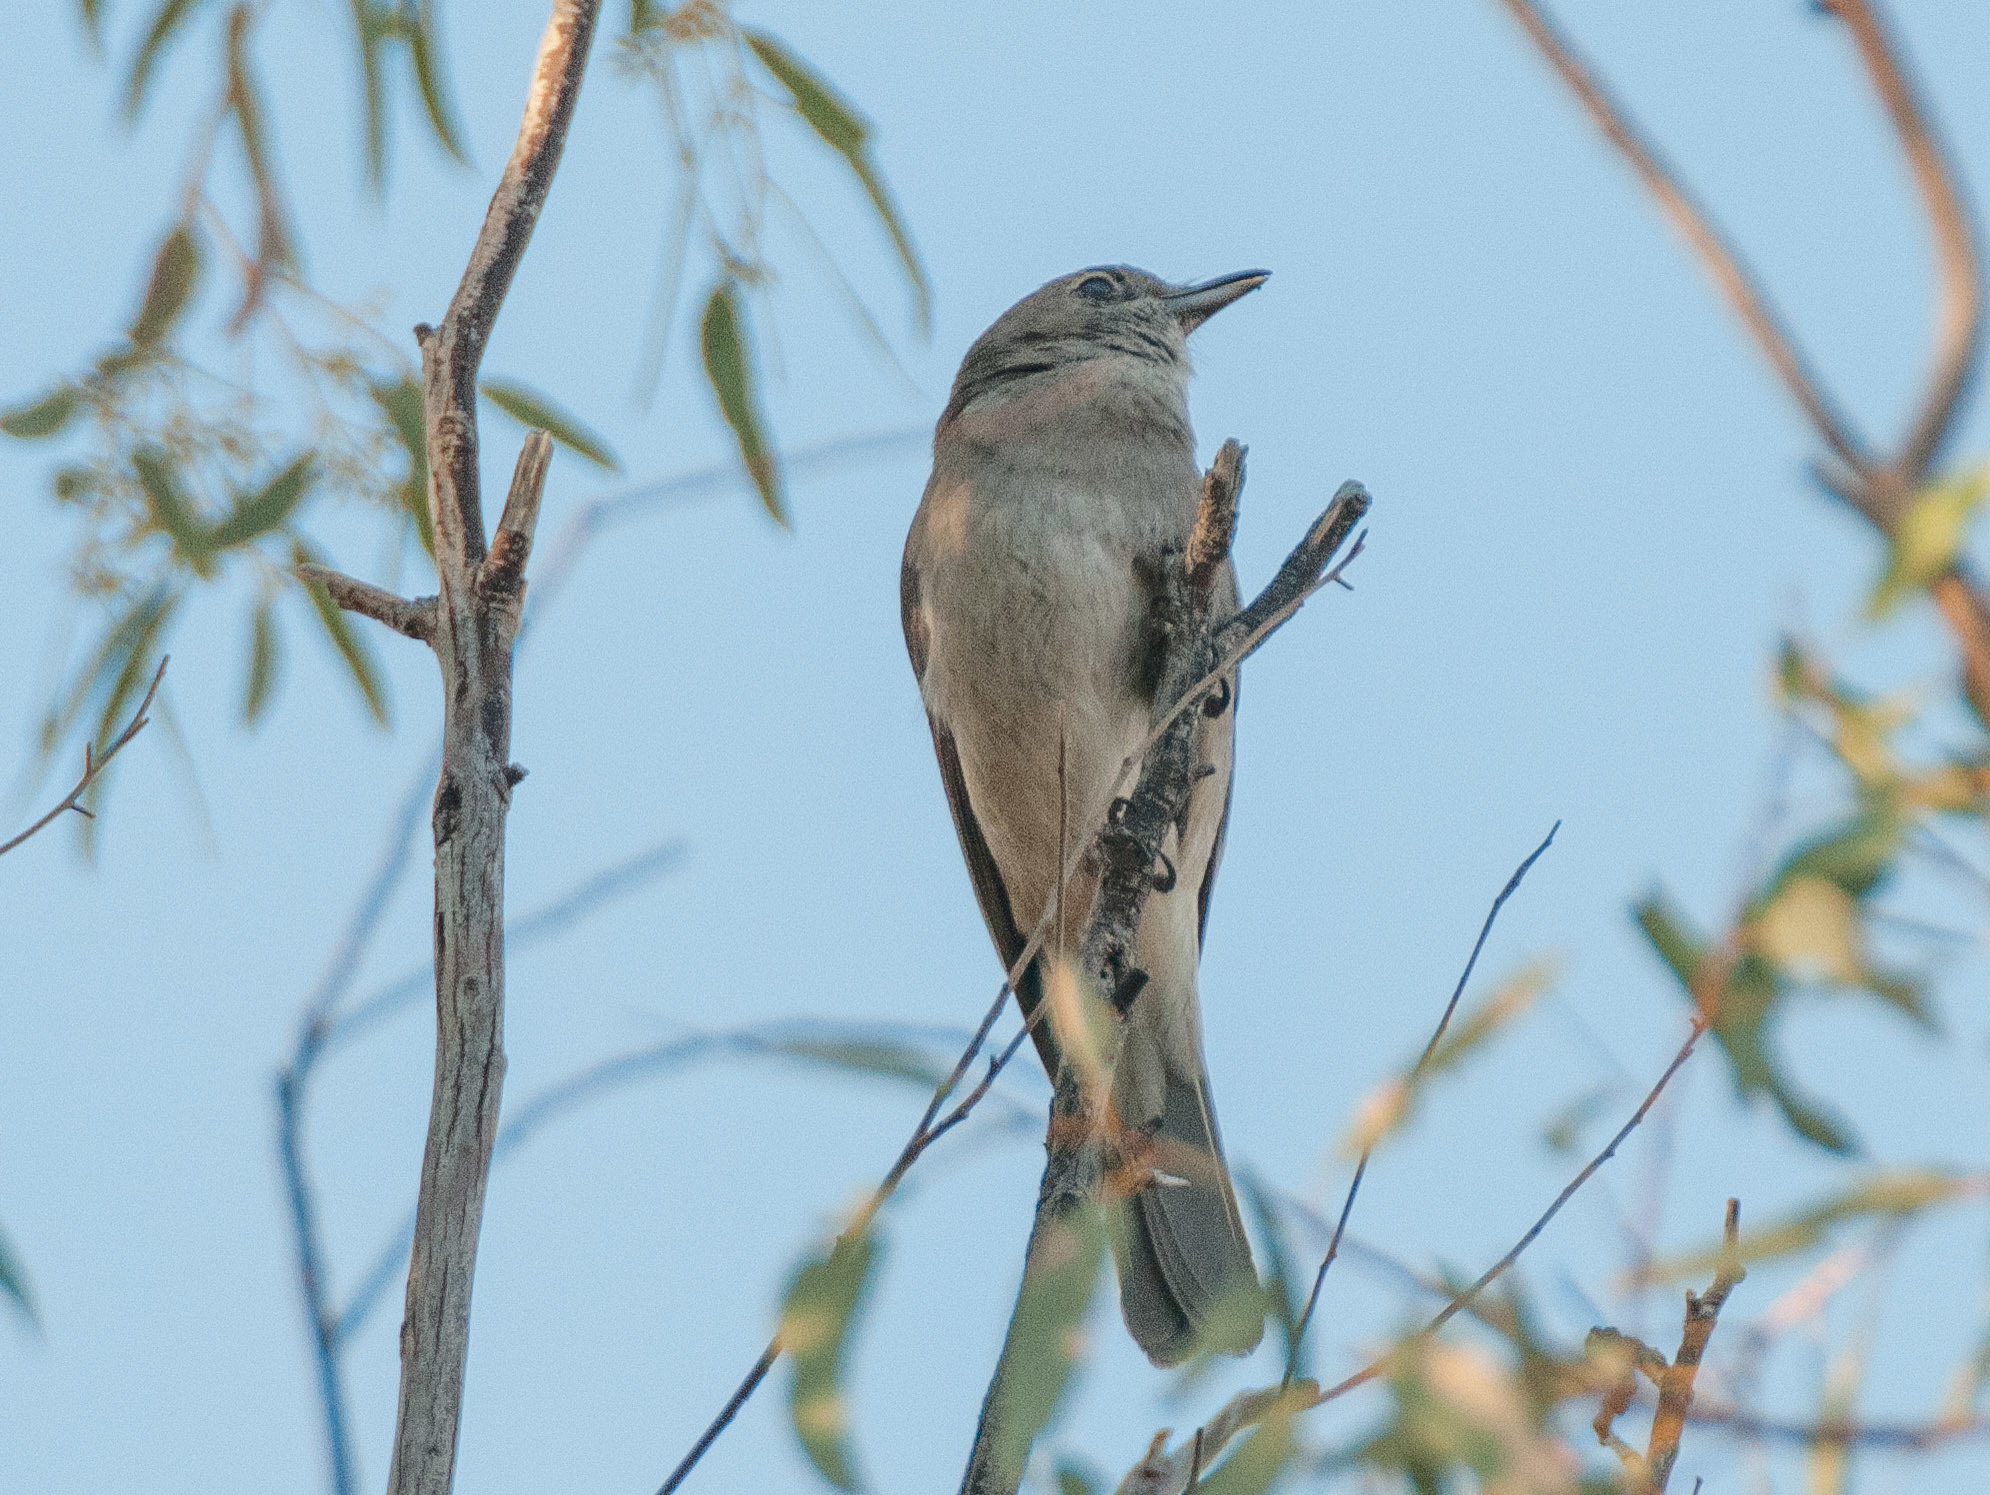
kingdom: Animalia
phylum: Chordata
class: Aves
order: Passeriformes
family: Pachycephalidae
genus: Colluricincla
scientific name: Colluricincla harmonica
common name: Grey shrikethrush
